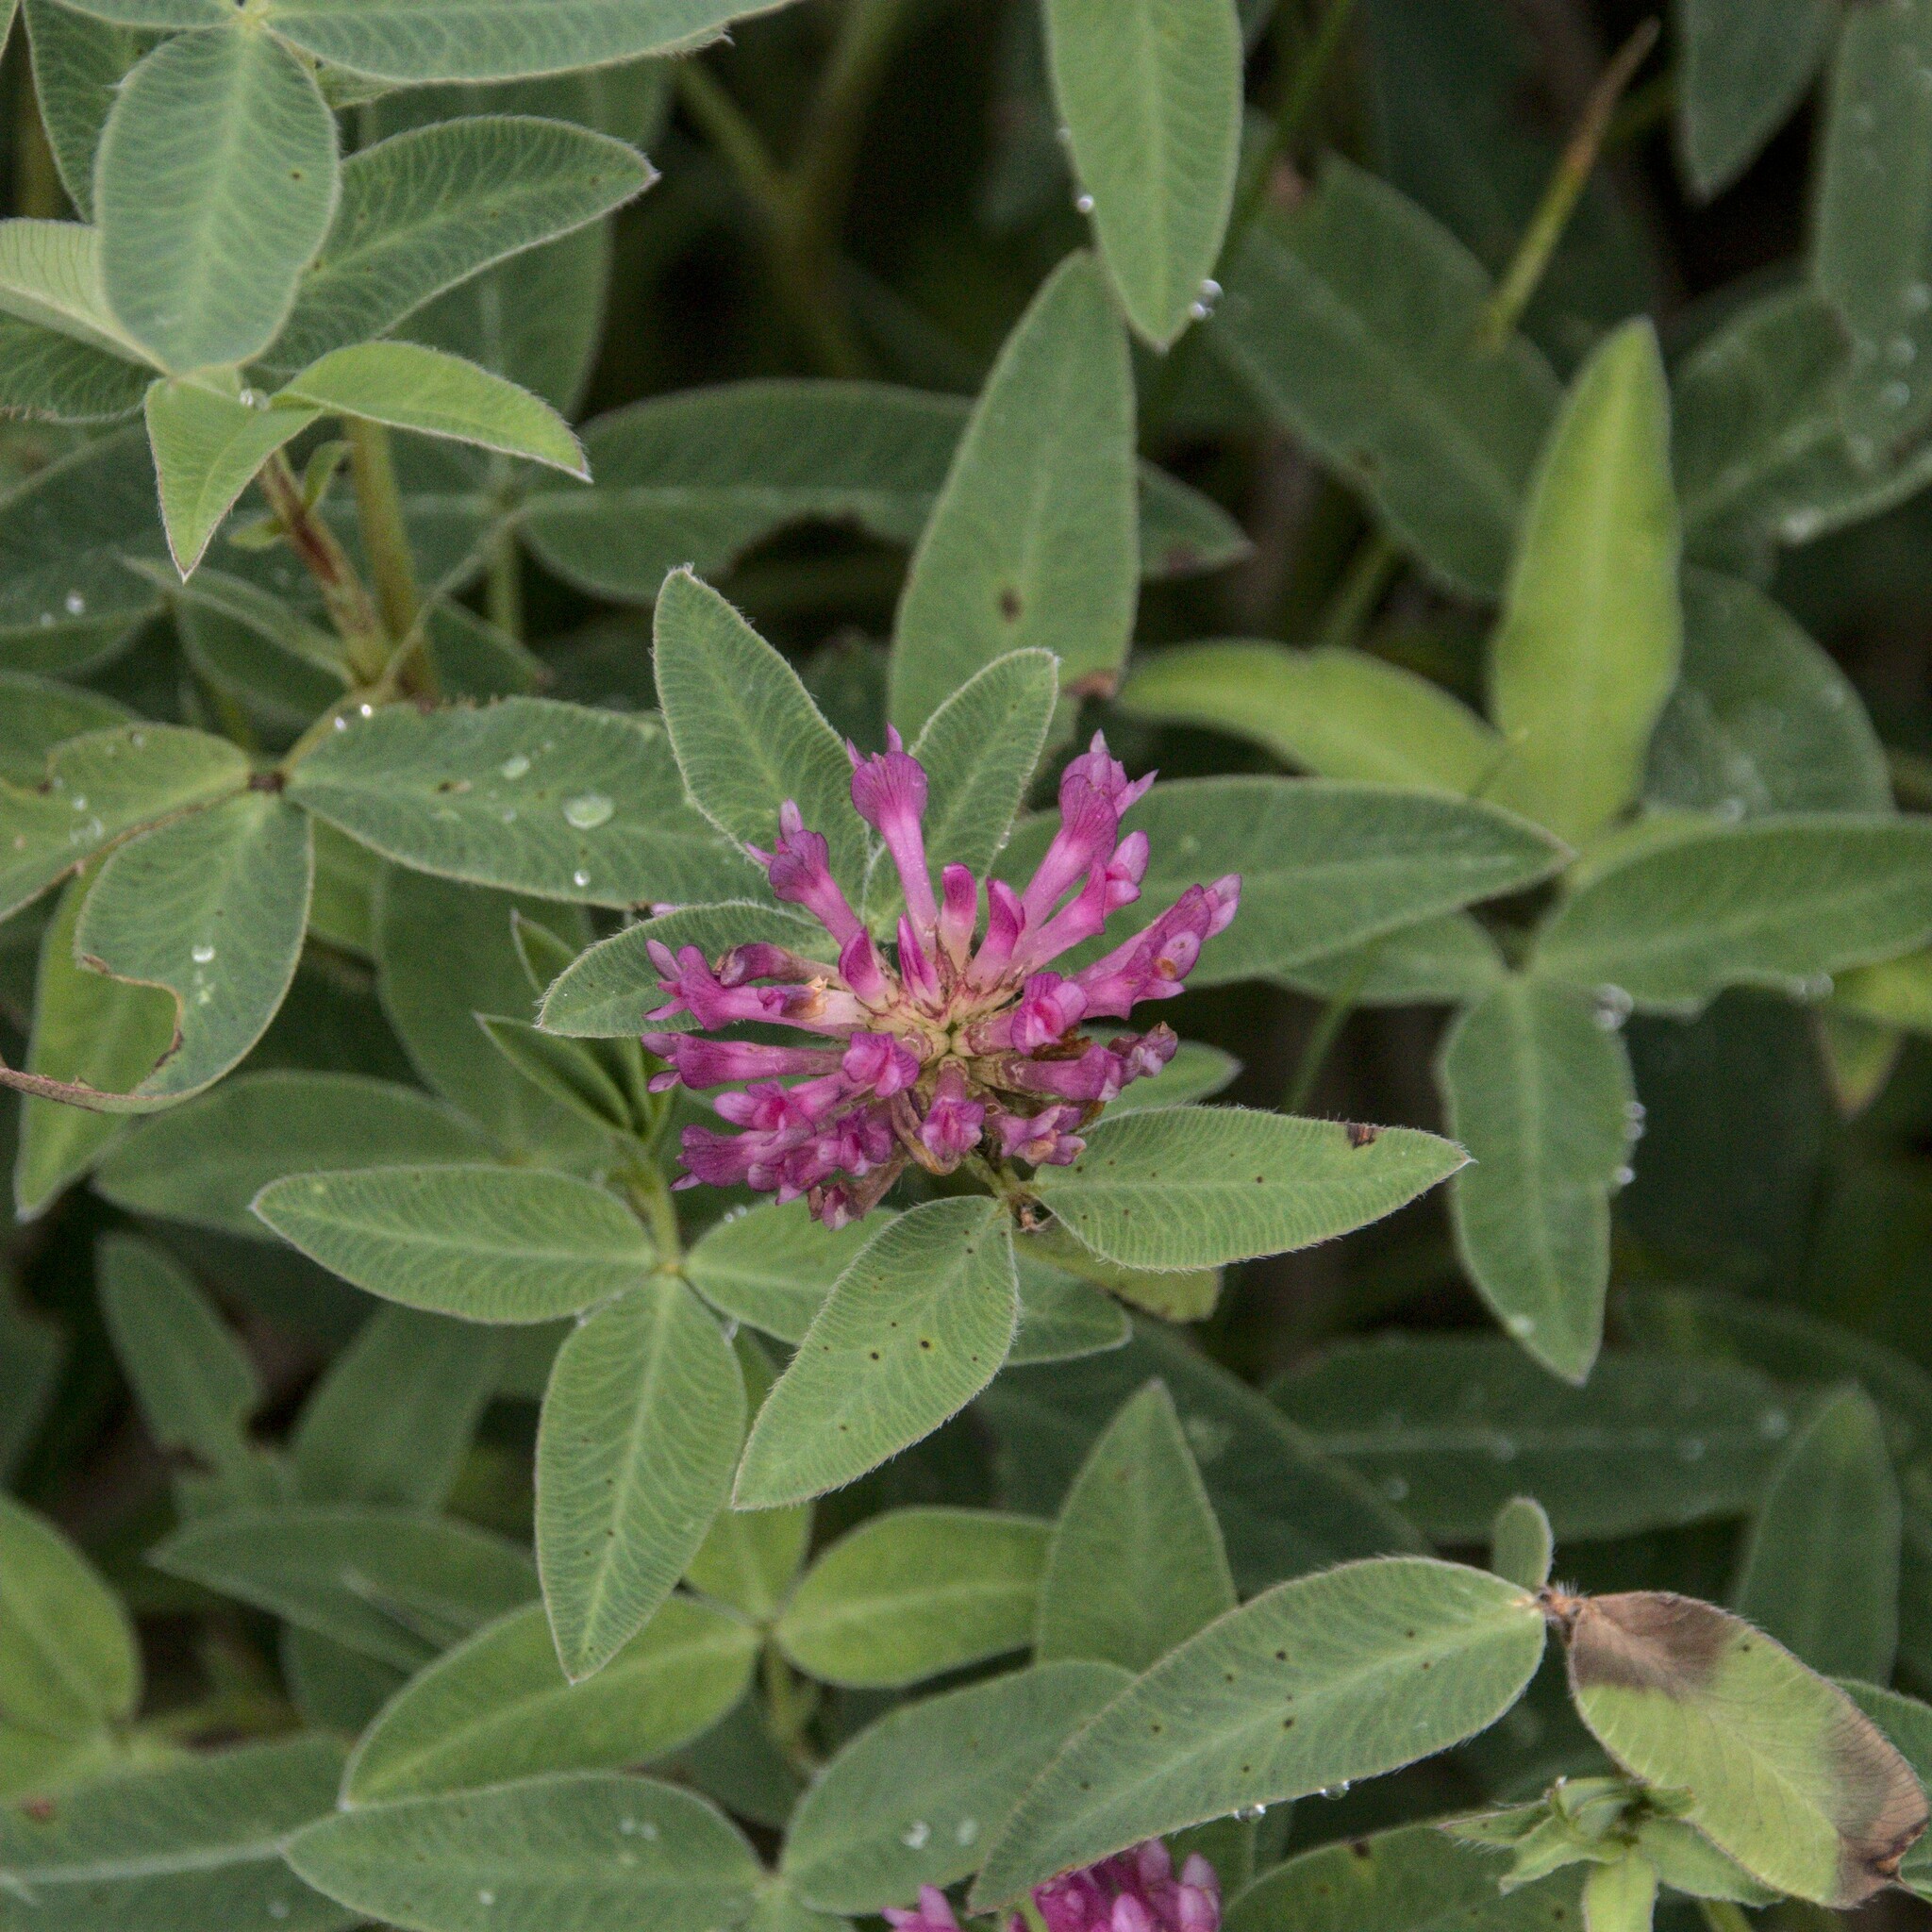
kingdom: Plantae
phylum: Tracheophyta
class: Magnoliopsida
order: Fabales
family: Fabaceae
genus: Trifolium
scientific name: Trifolium medium
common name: Zigzag clover
